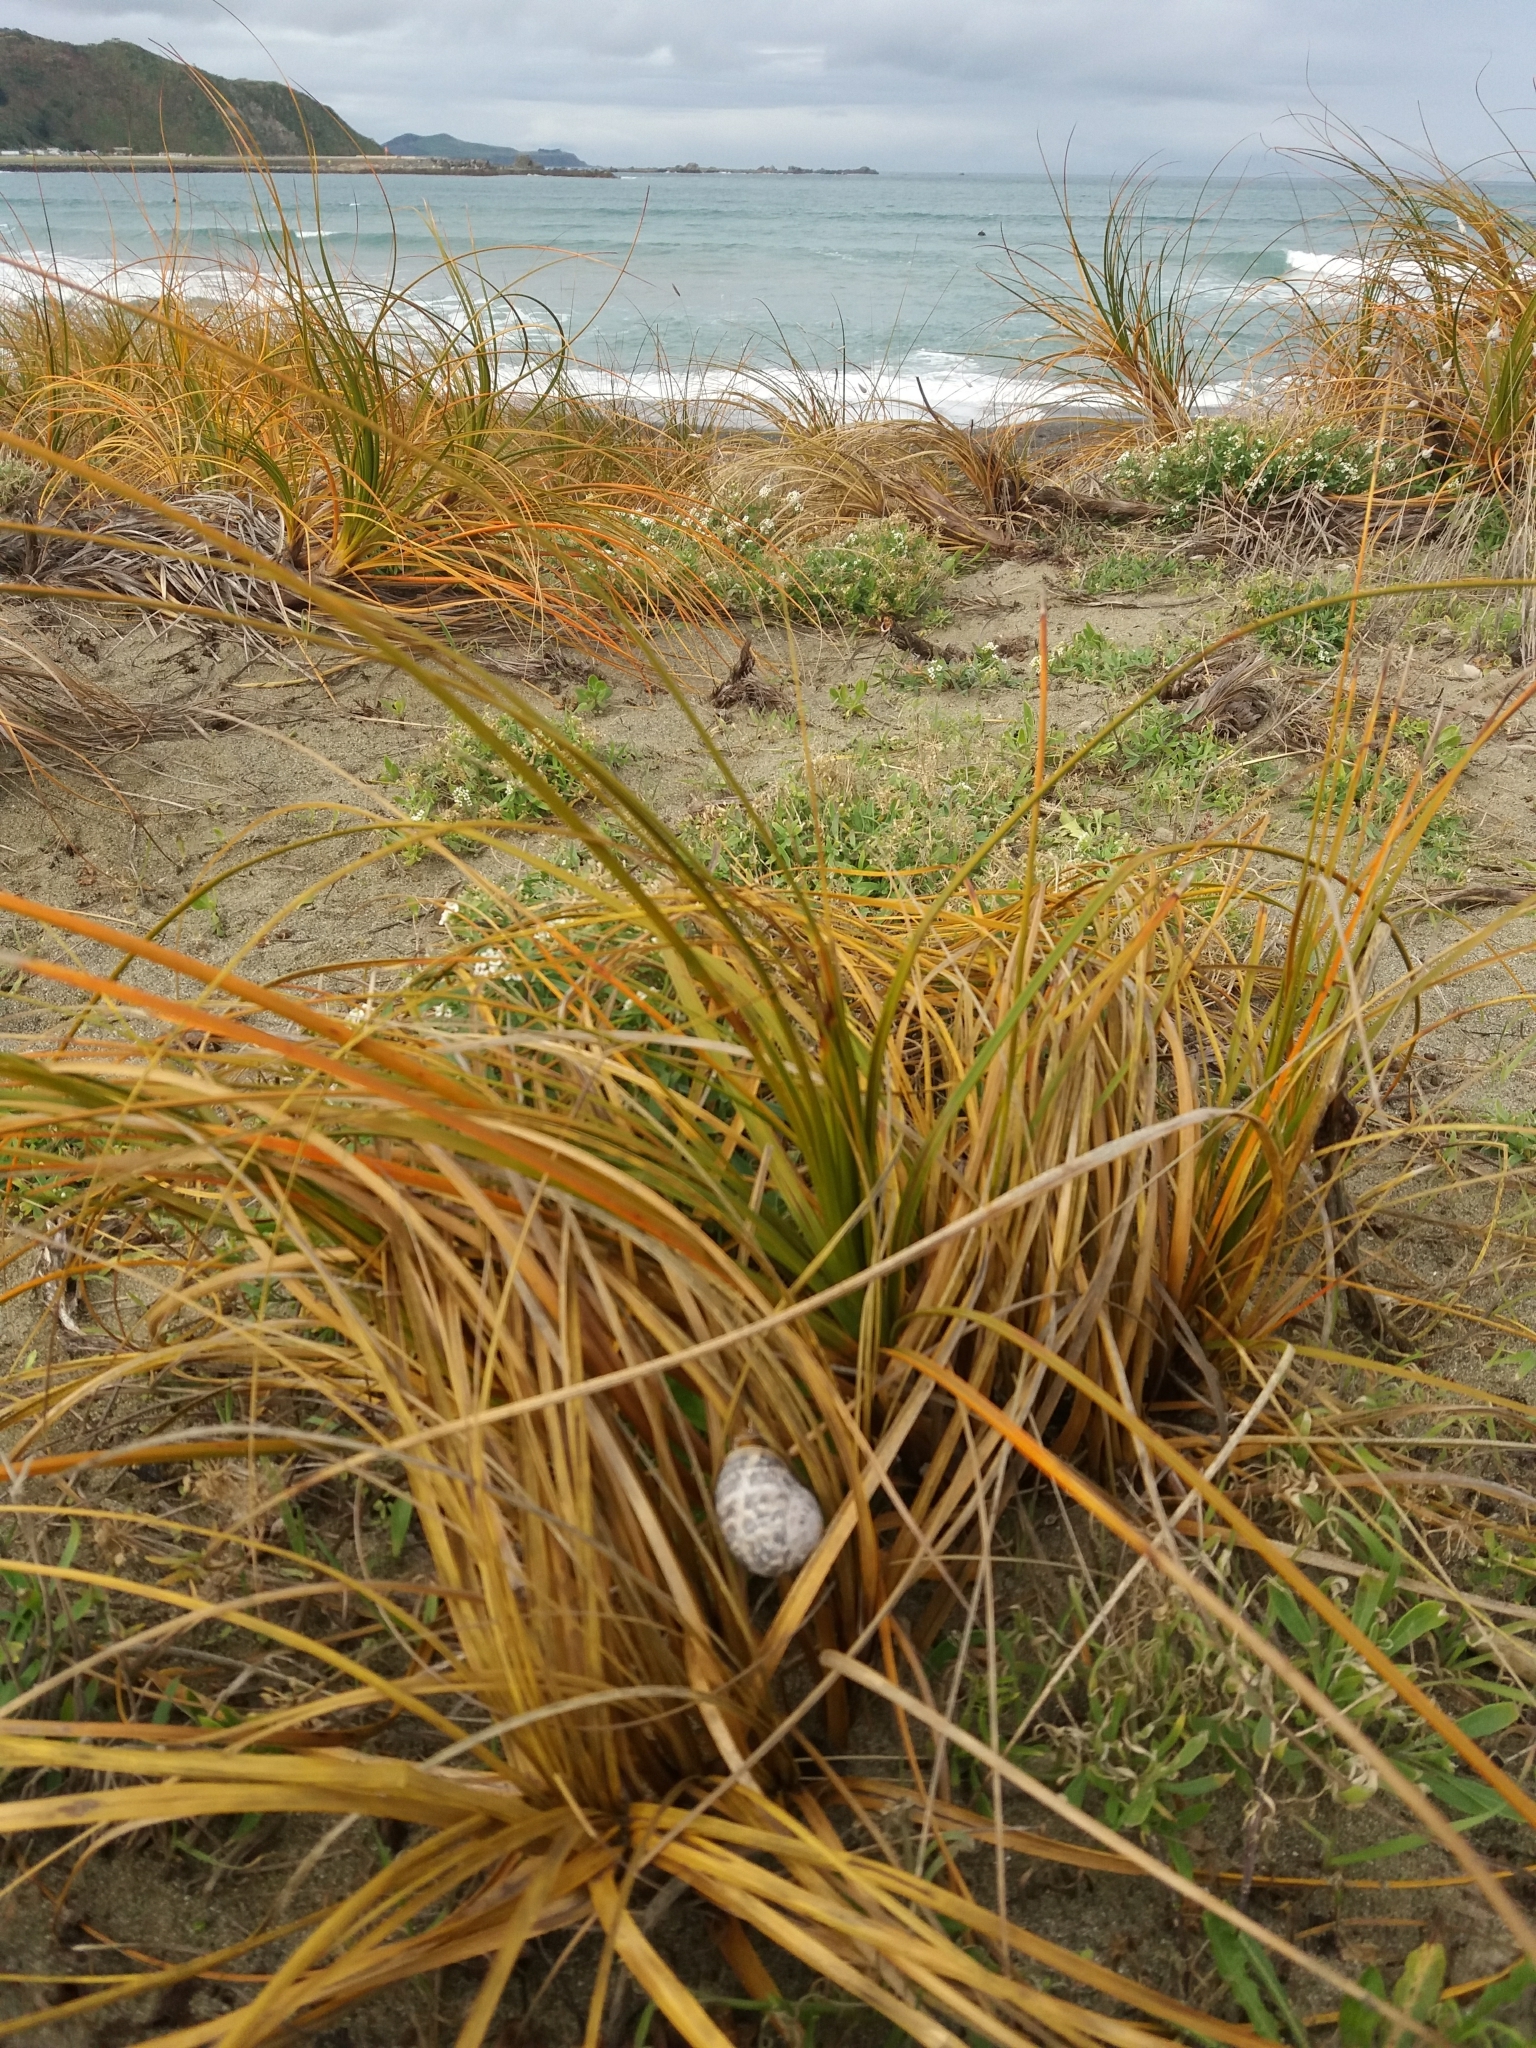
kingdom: Animalia
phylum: Mollusca
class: Gastropoda
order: Stylommatophora
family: Helicidae
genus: Cornu
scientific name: Cornu aspersum
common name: Brown garden snail
